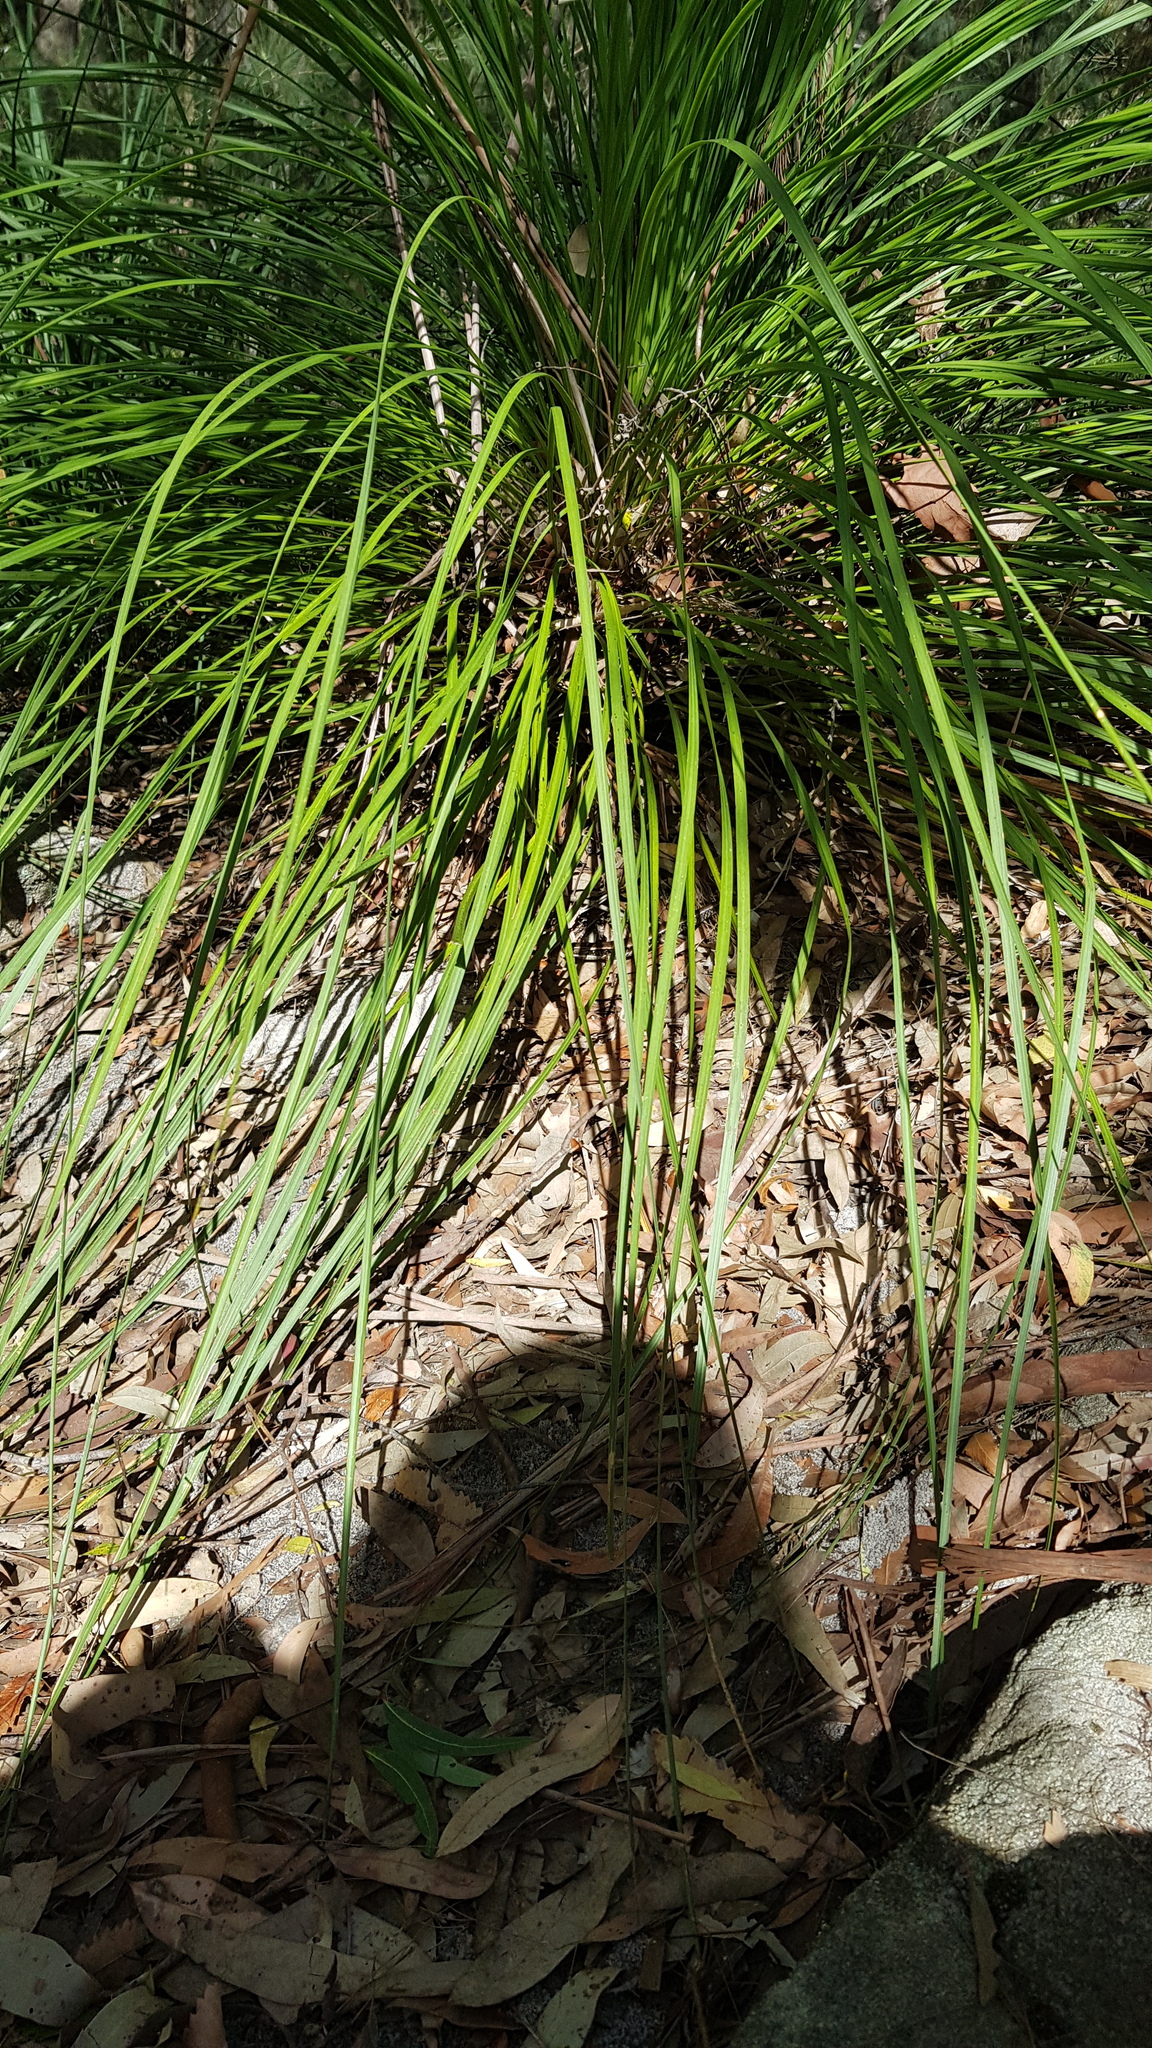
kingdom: Animalia
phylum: Chordata
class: Squamata
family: Scincidae
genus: Eulamprus
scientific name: Eulamprus quoyii
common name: Eastern water skink
